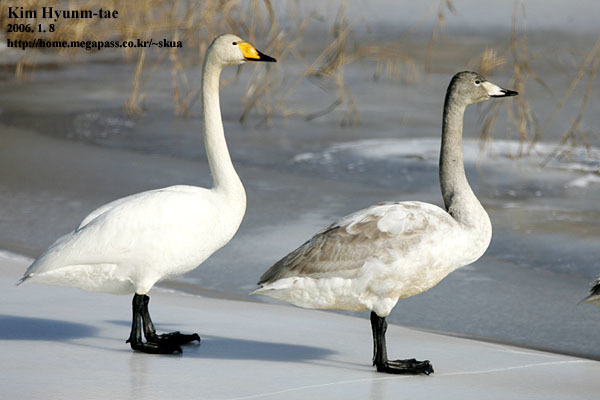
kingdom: Animalia
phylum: Chordata
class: Aves
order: Anseriformes
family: Anatidae
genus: Cygnus
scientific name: Cygnus cygnus
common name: Whooper swan
